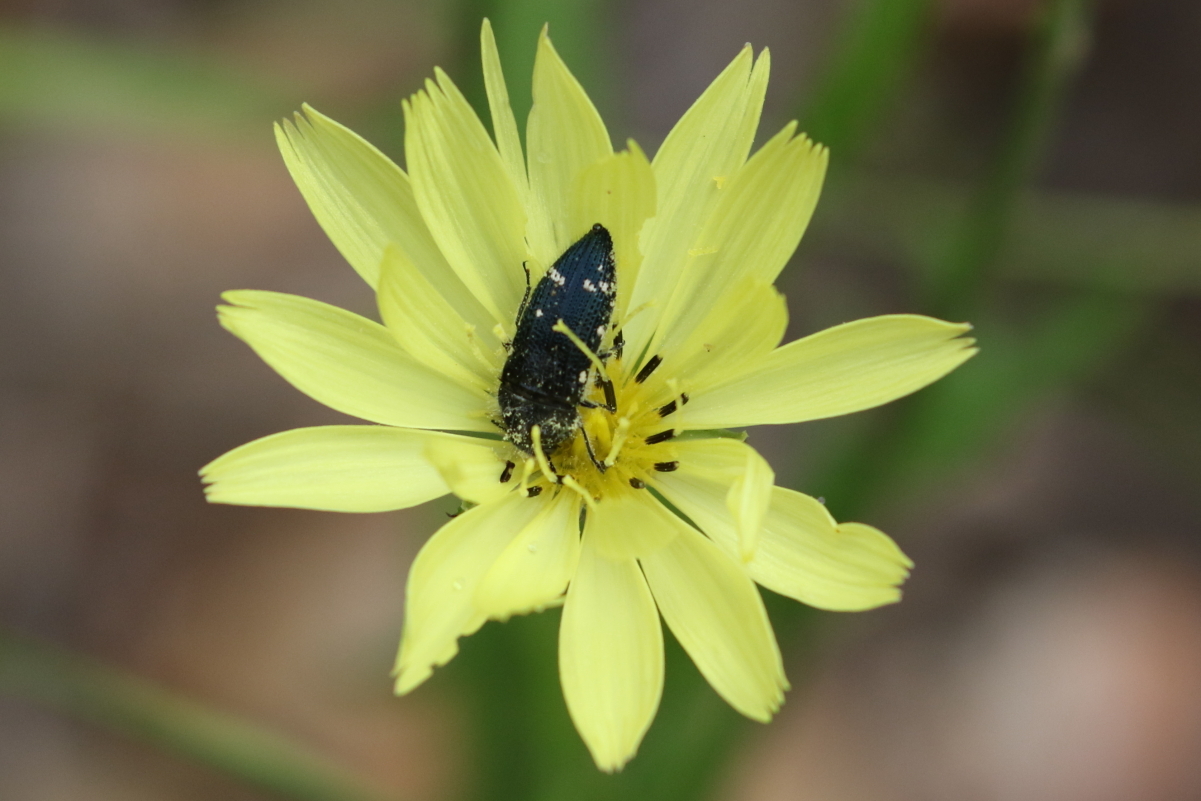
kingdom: Animalia
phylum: Arthropoda
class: Insecta
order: Coleoptera
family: Buprestidae
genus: Acmaeodera
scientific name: Acmaeodera ornatoides
